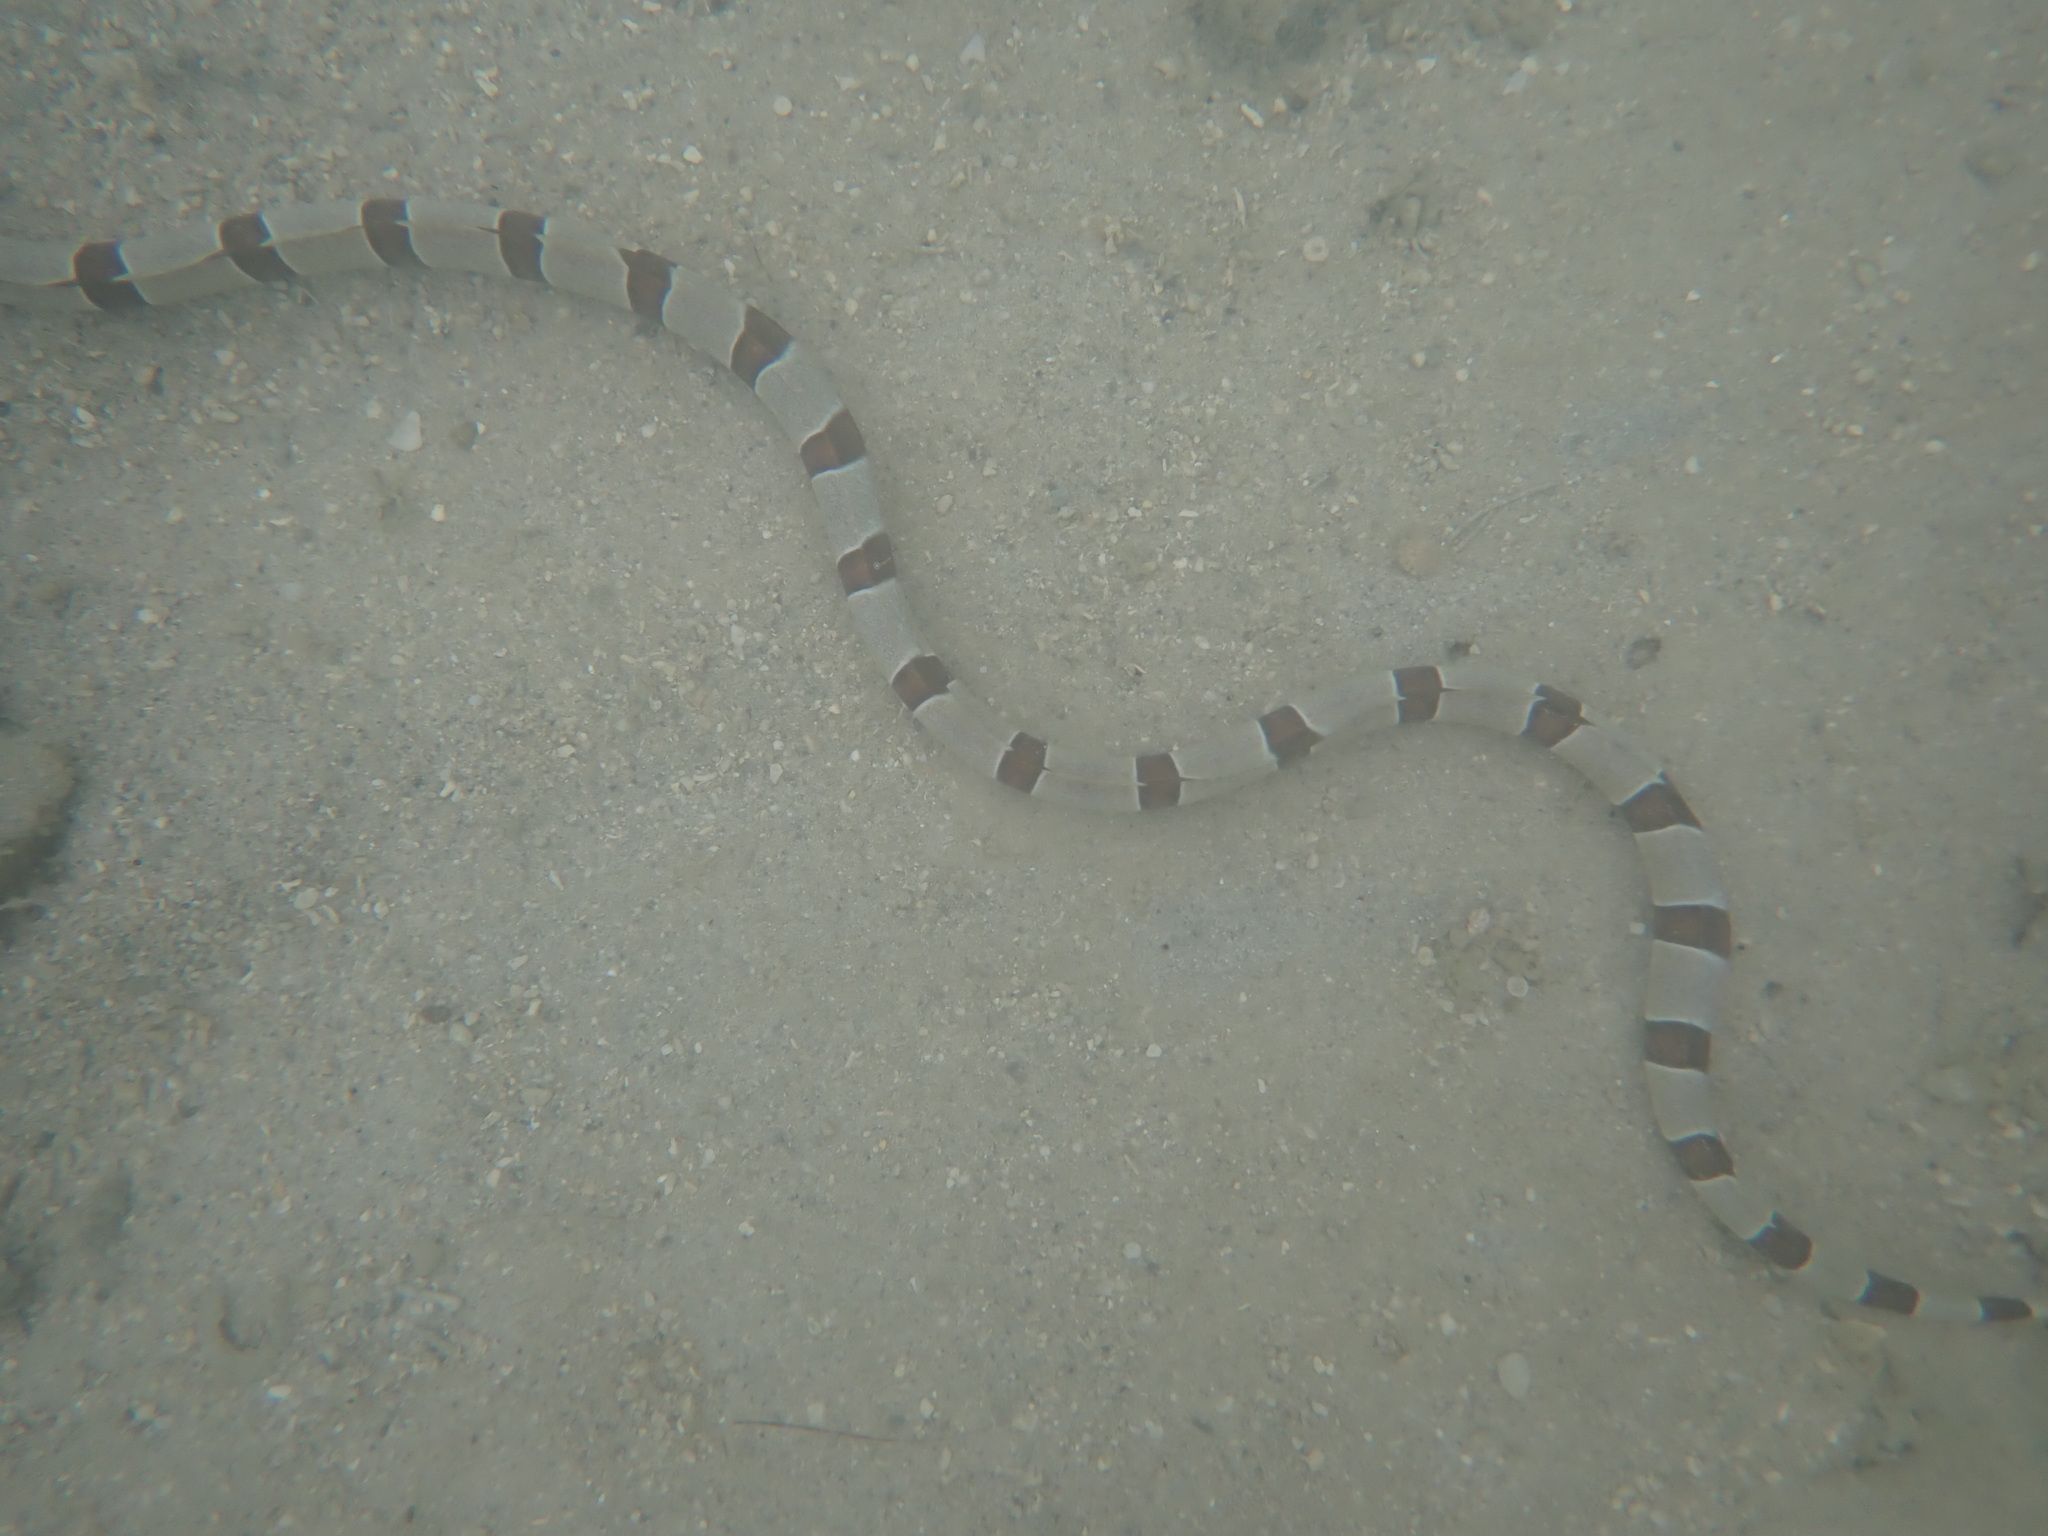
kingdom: Animalia
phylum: Chordata
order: Anguilliformes
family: Ophichthidae
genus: Myrichthys
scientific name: Myrichthys colubrinus
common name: Harlequin snake eel
